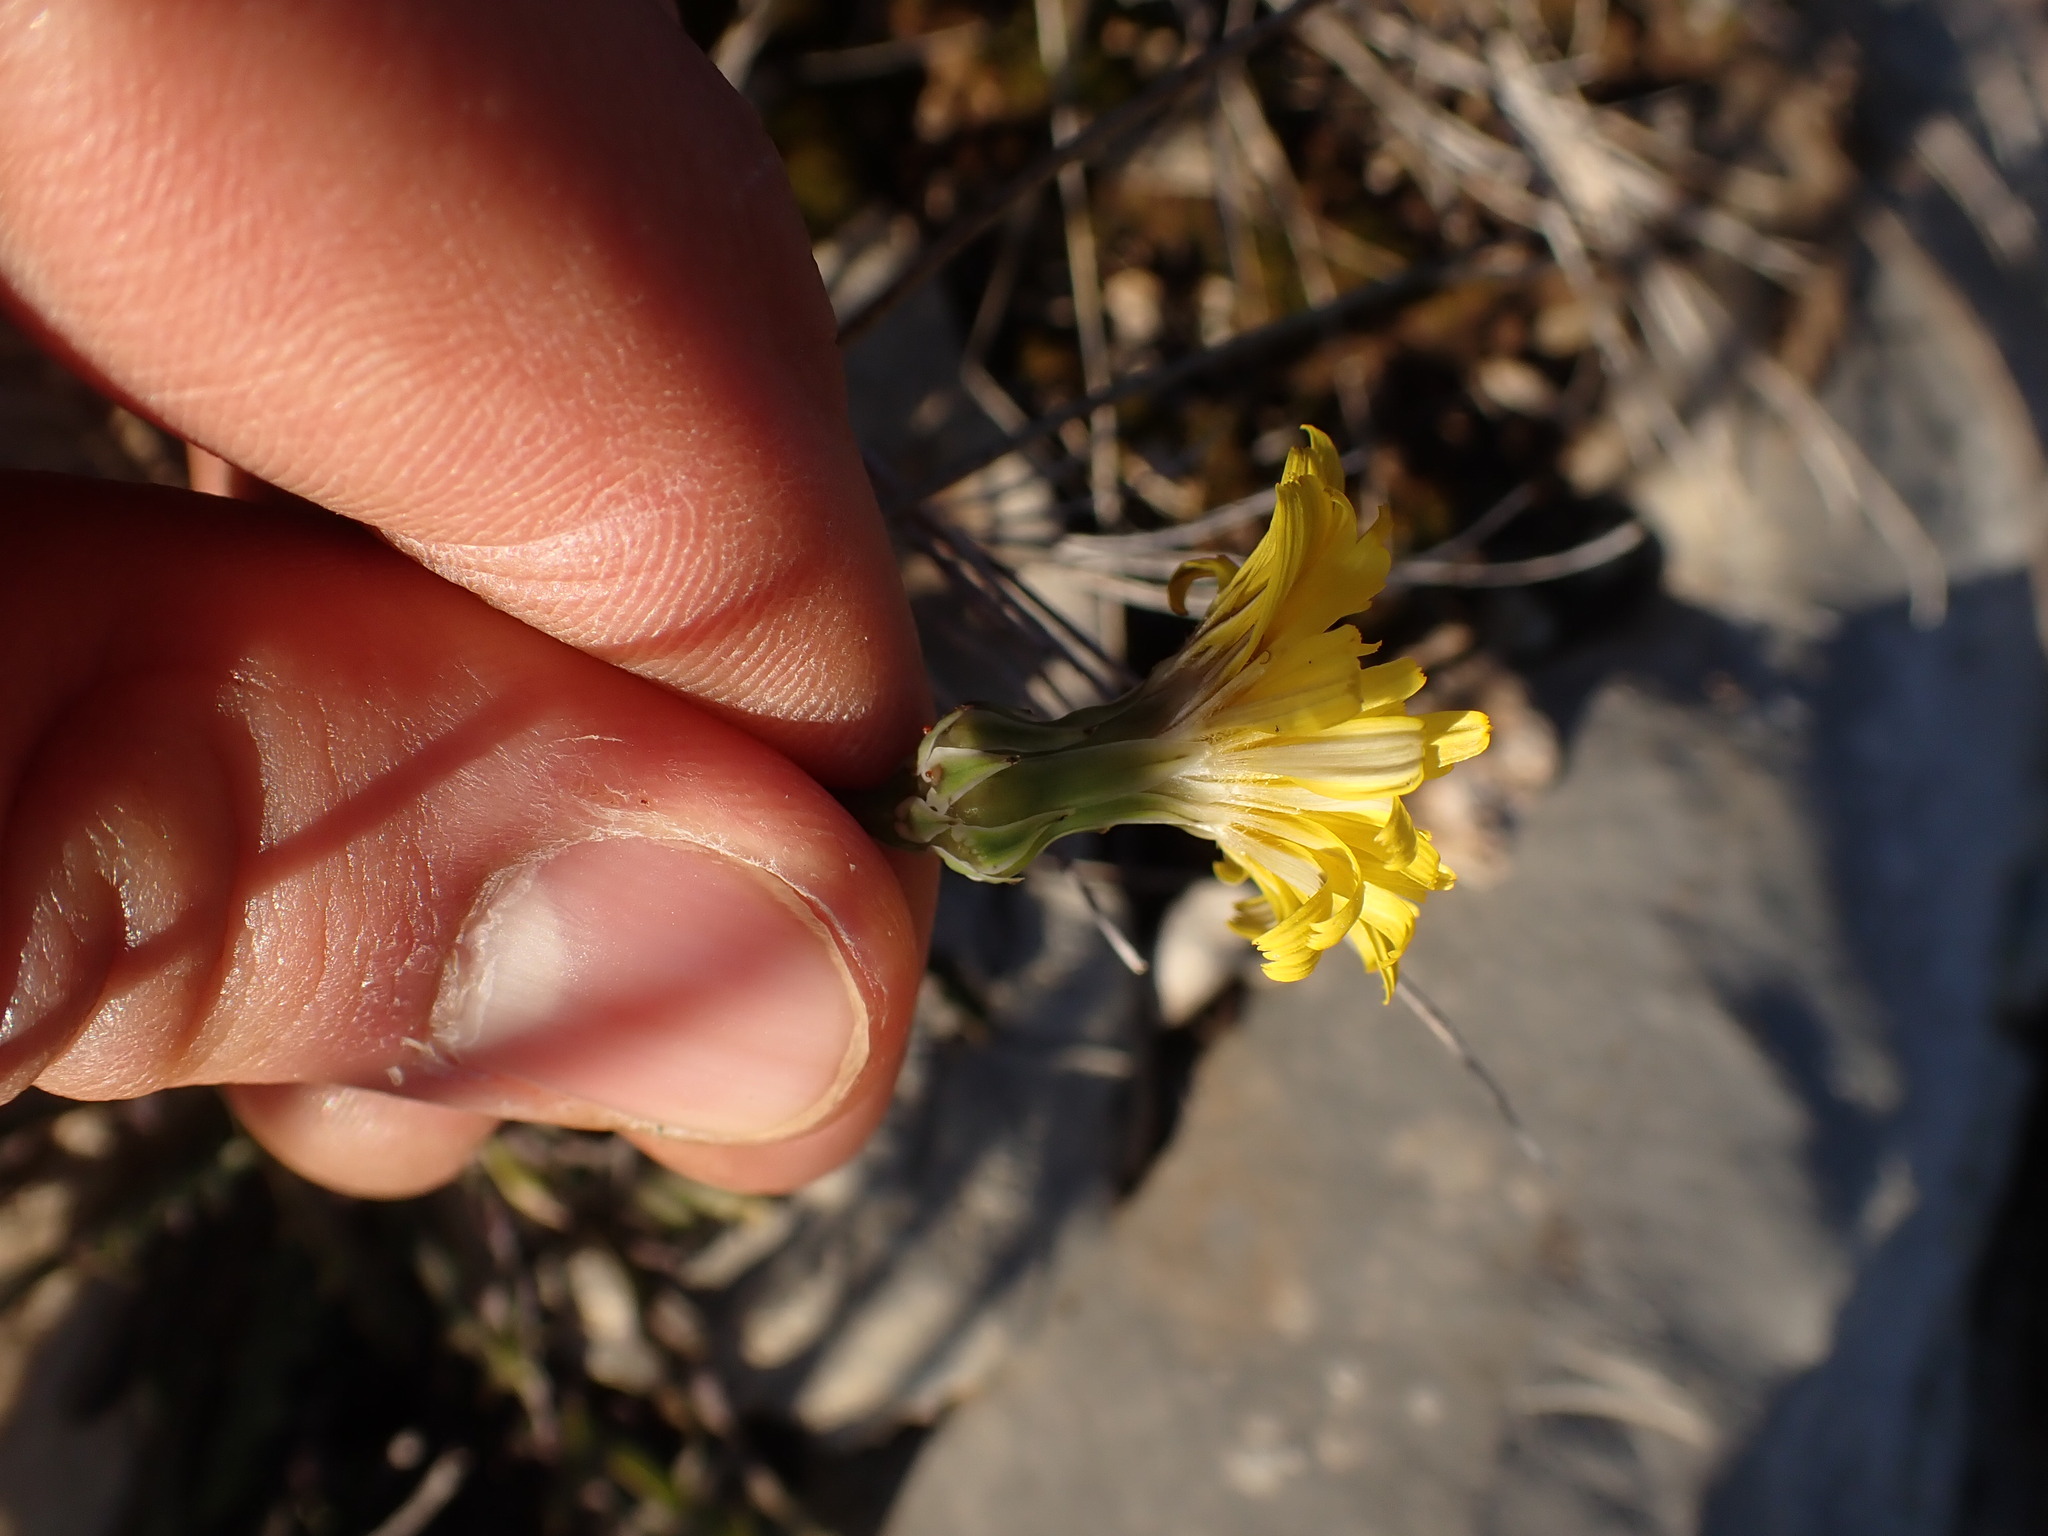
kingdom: Plantae
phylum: Tracheophyta
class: Magnoliopsida
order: Asterales
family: Asteraceae
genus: Reichardia
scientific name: Reichardia picroides
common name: Common brighteyes
